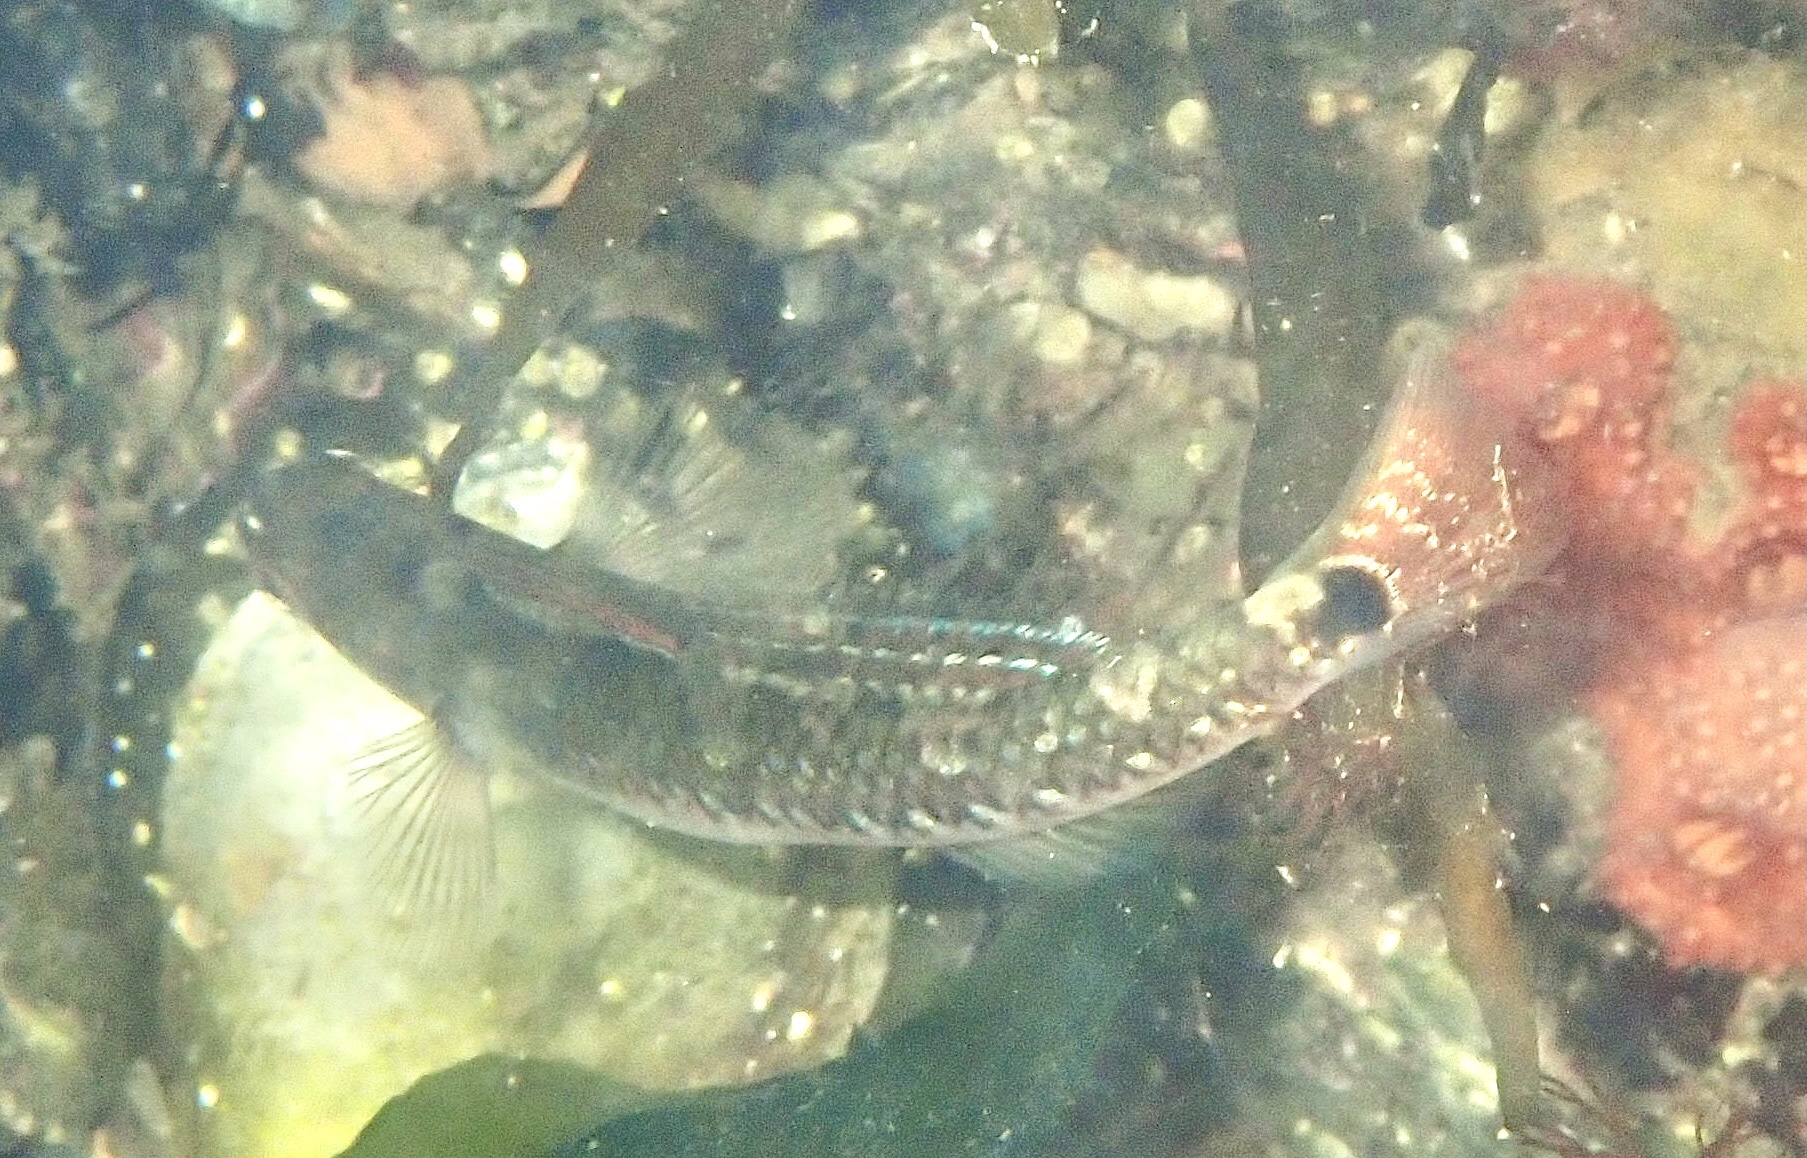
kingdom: Animalia
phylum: Chordata
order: Perciformes
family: Gobiidae
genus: Gobiusculus
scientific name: Gobiusculus flavescens
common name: Two-spotted goby
